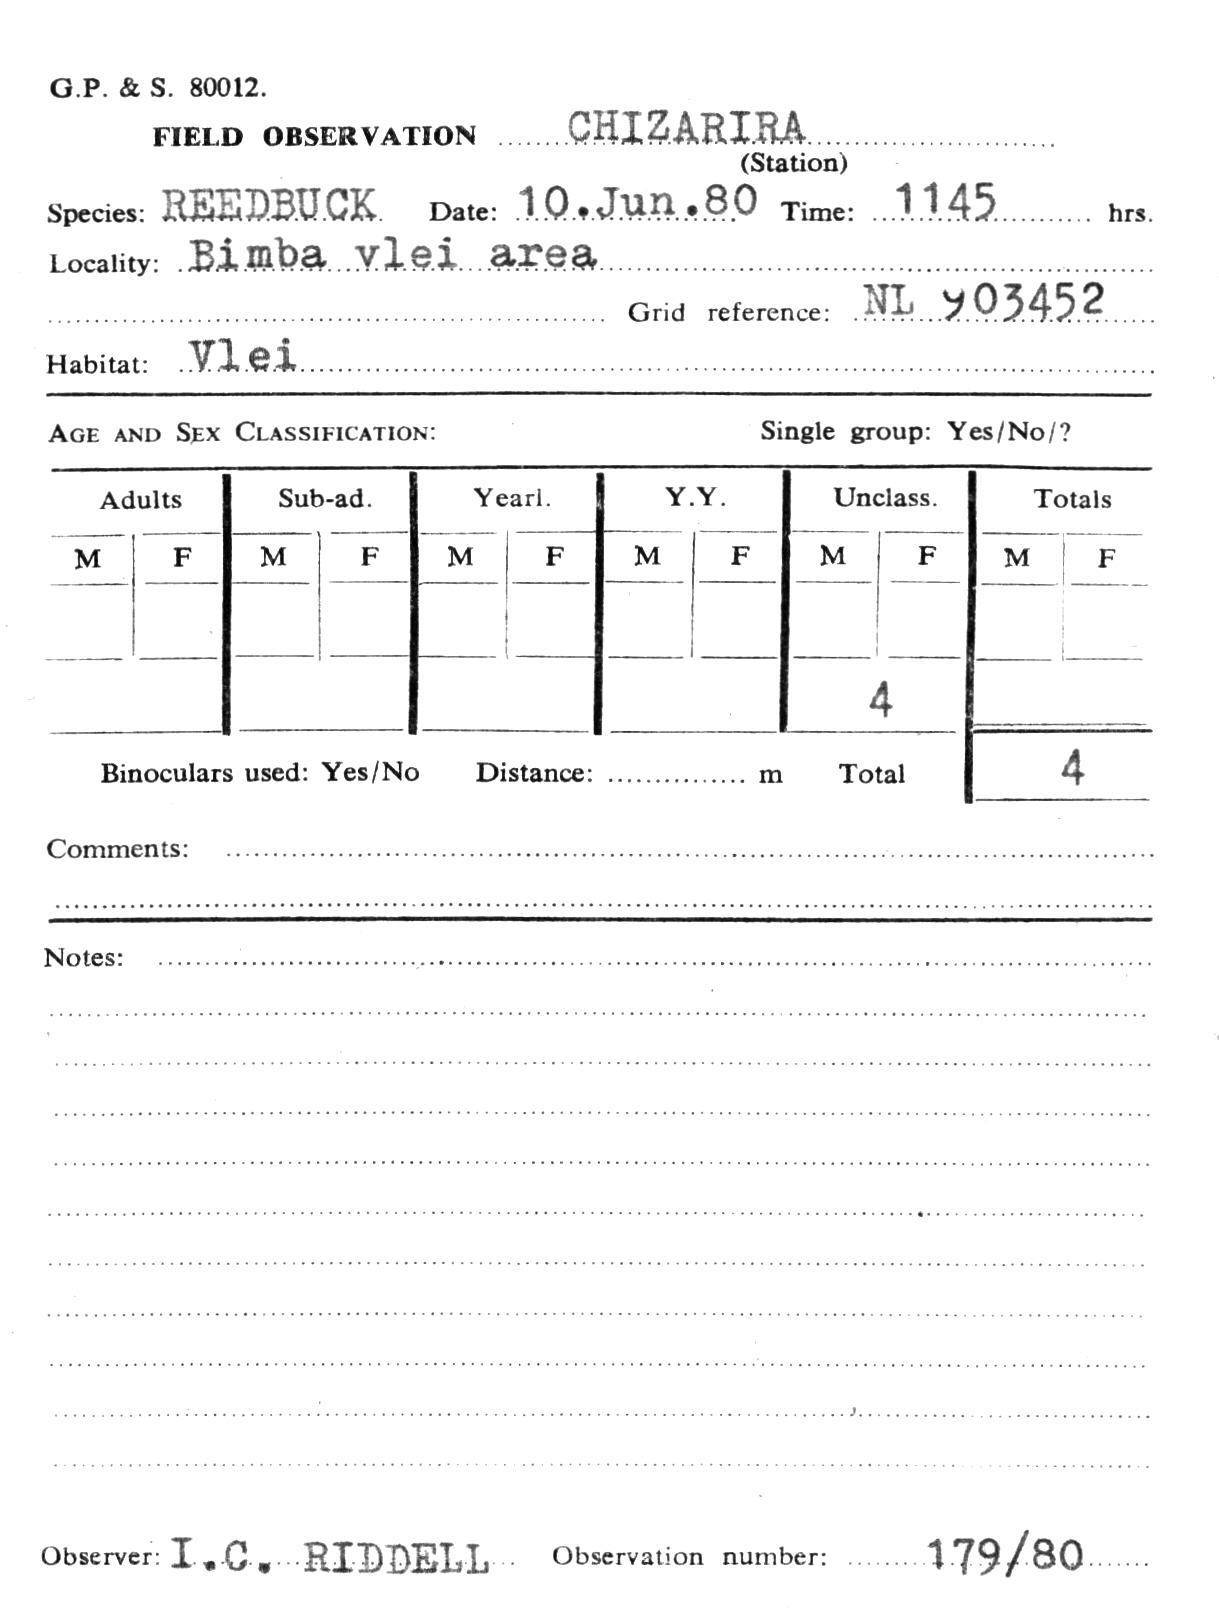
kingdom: Animalia
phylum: Chordata
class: Mammalia
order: Artiodactyla
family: Bovidae
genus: Redunca
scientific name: Redunca arundinum
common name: Southern reedbuck
